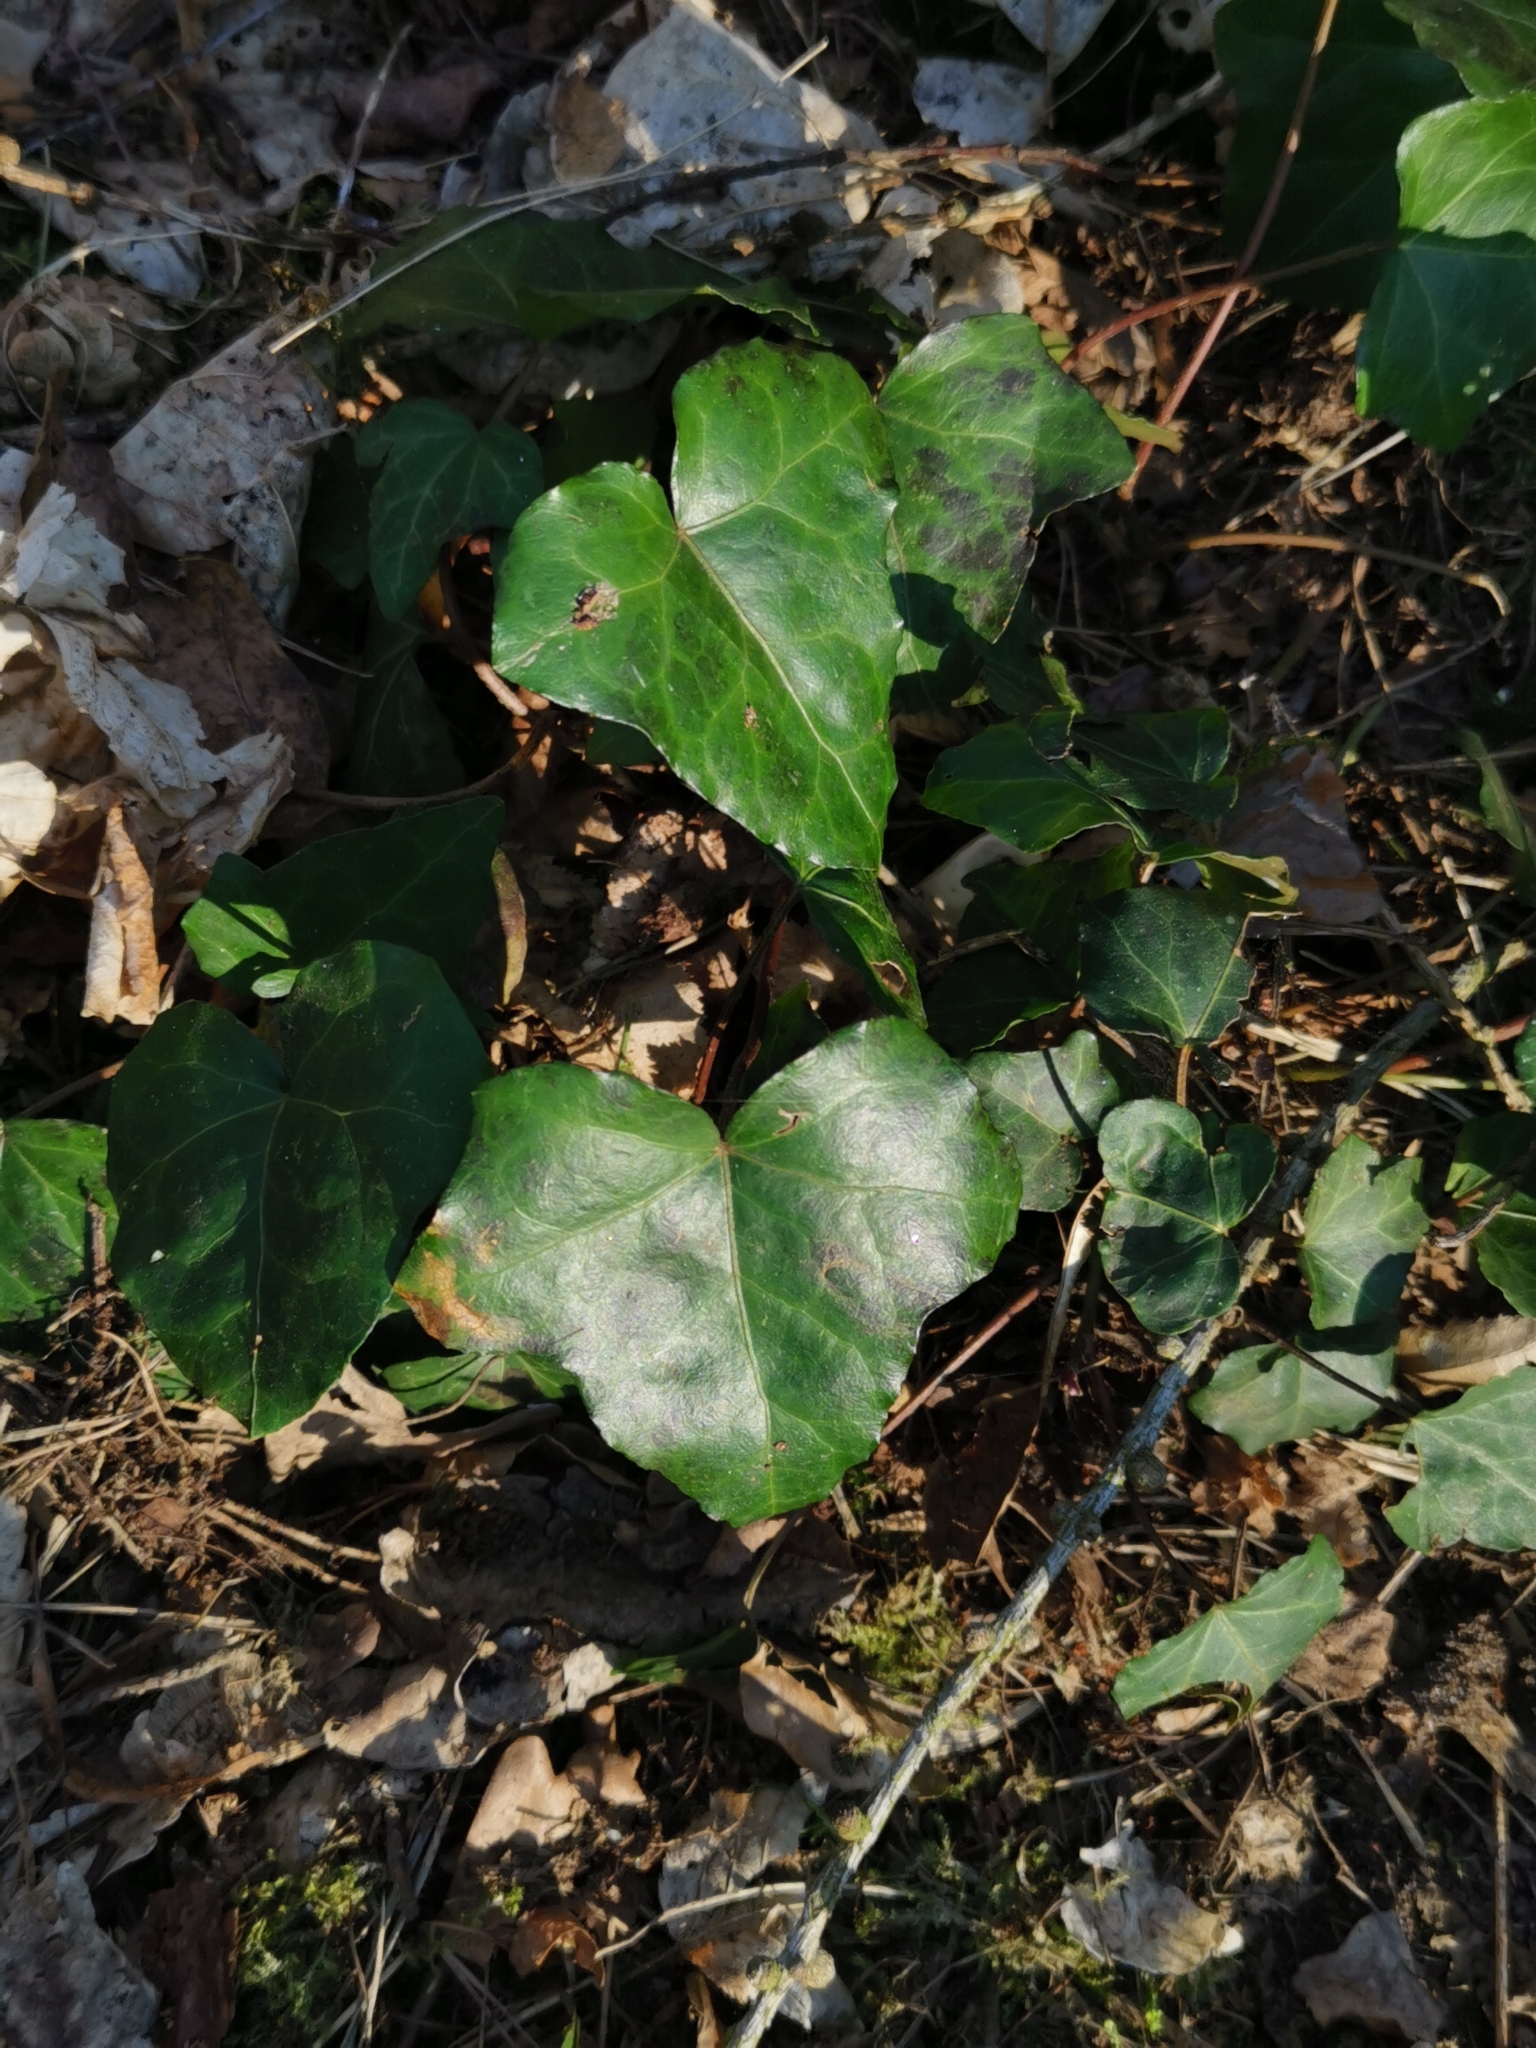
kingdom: Plantae
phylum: Tracheophyta
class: Magnoliopsida
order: Apiales
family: Araliaceae
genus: Hedera
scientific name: Hedera helix
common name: Ivy
